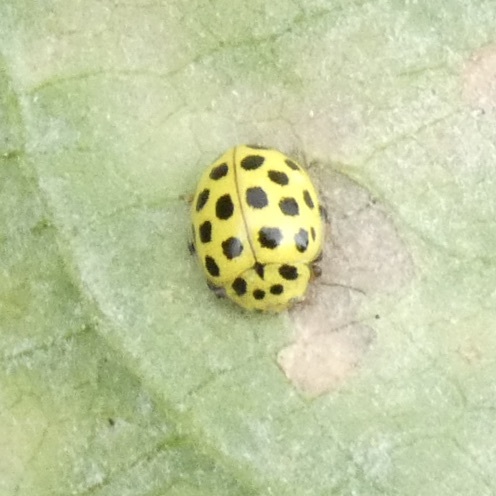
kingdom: Animalia
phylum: Arthropoda
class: Insecta
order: Coleoptera
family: Coccinellidae
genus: Psyllobora
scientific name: Psyllobora vigintiduopunctata
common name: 22-spot ladybird
